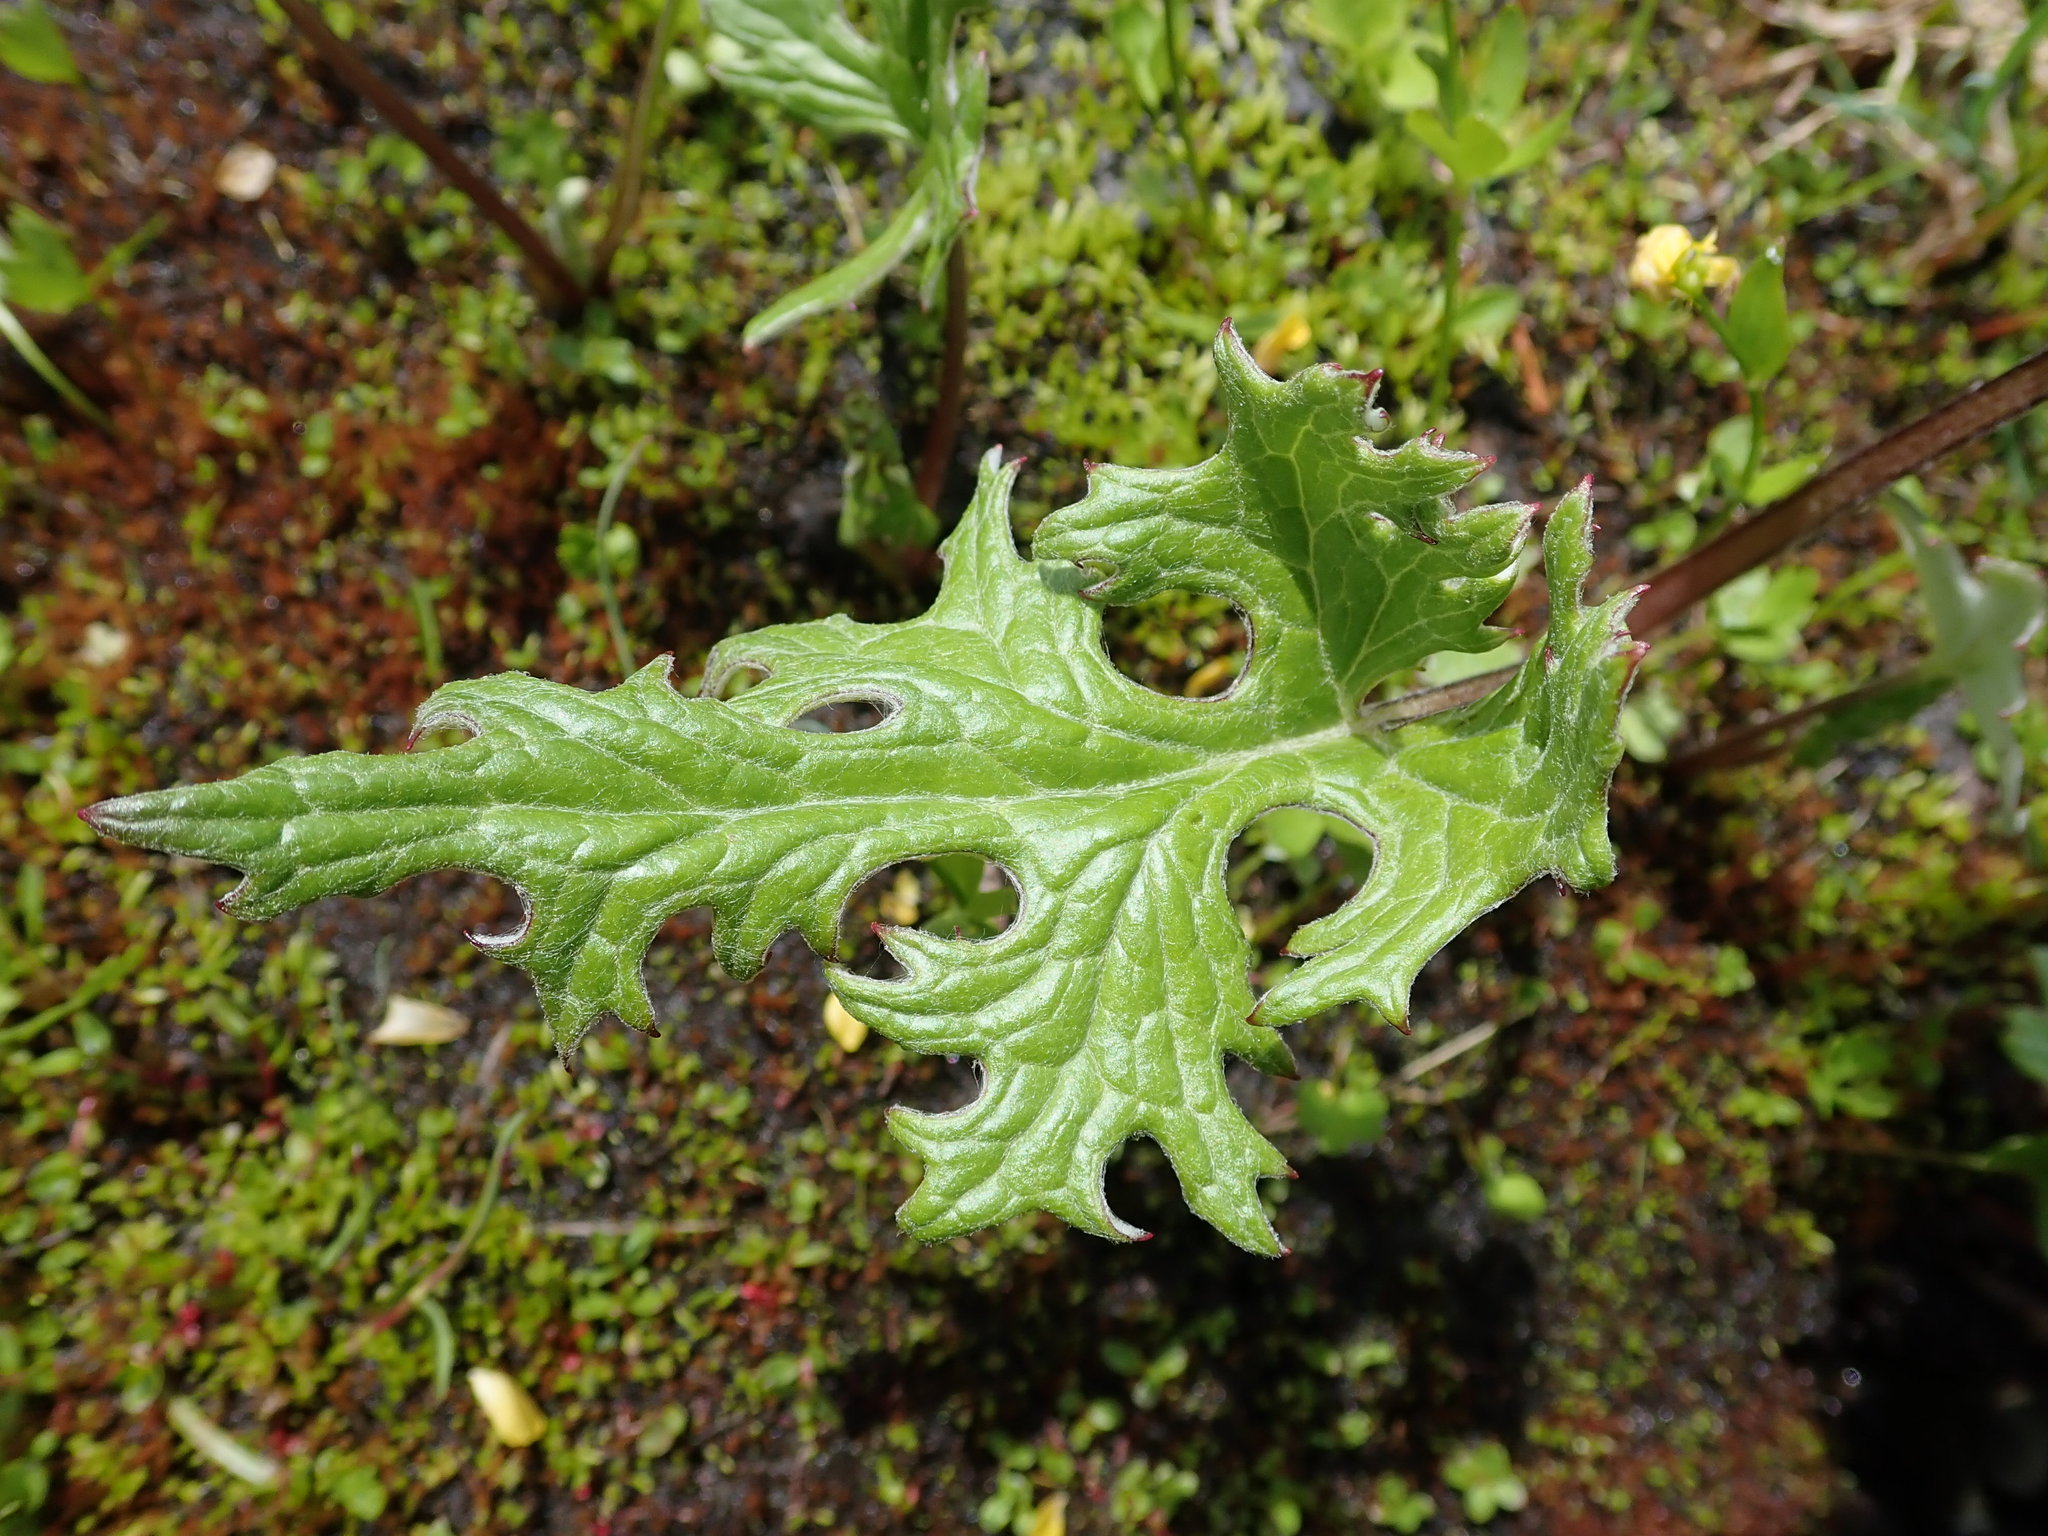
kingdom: Plantae
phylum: Tracheophyta
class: Magnoliopsida
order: Asterales
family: Asteraceae
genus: Petasites
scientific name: Petasites frigidus
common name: Arctic butterbur
